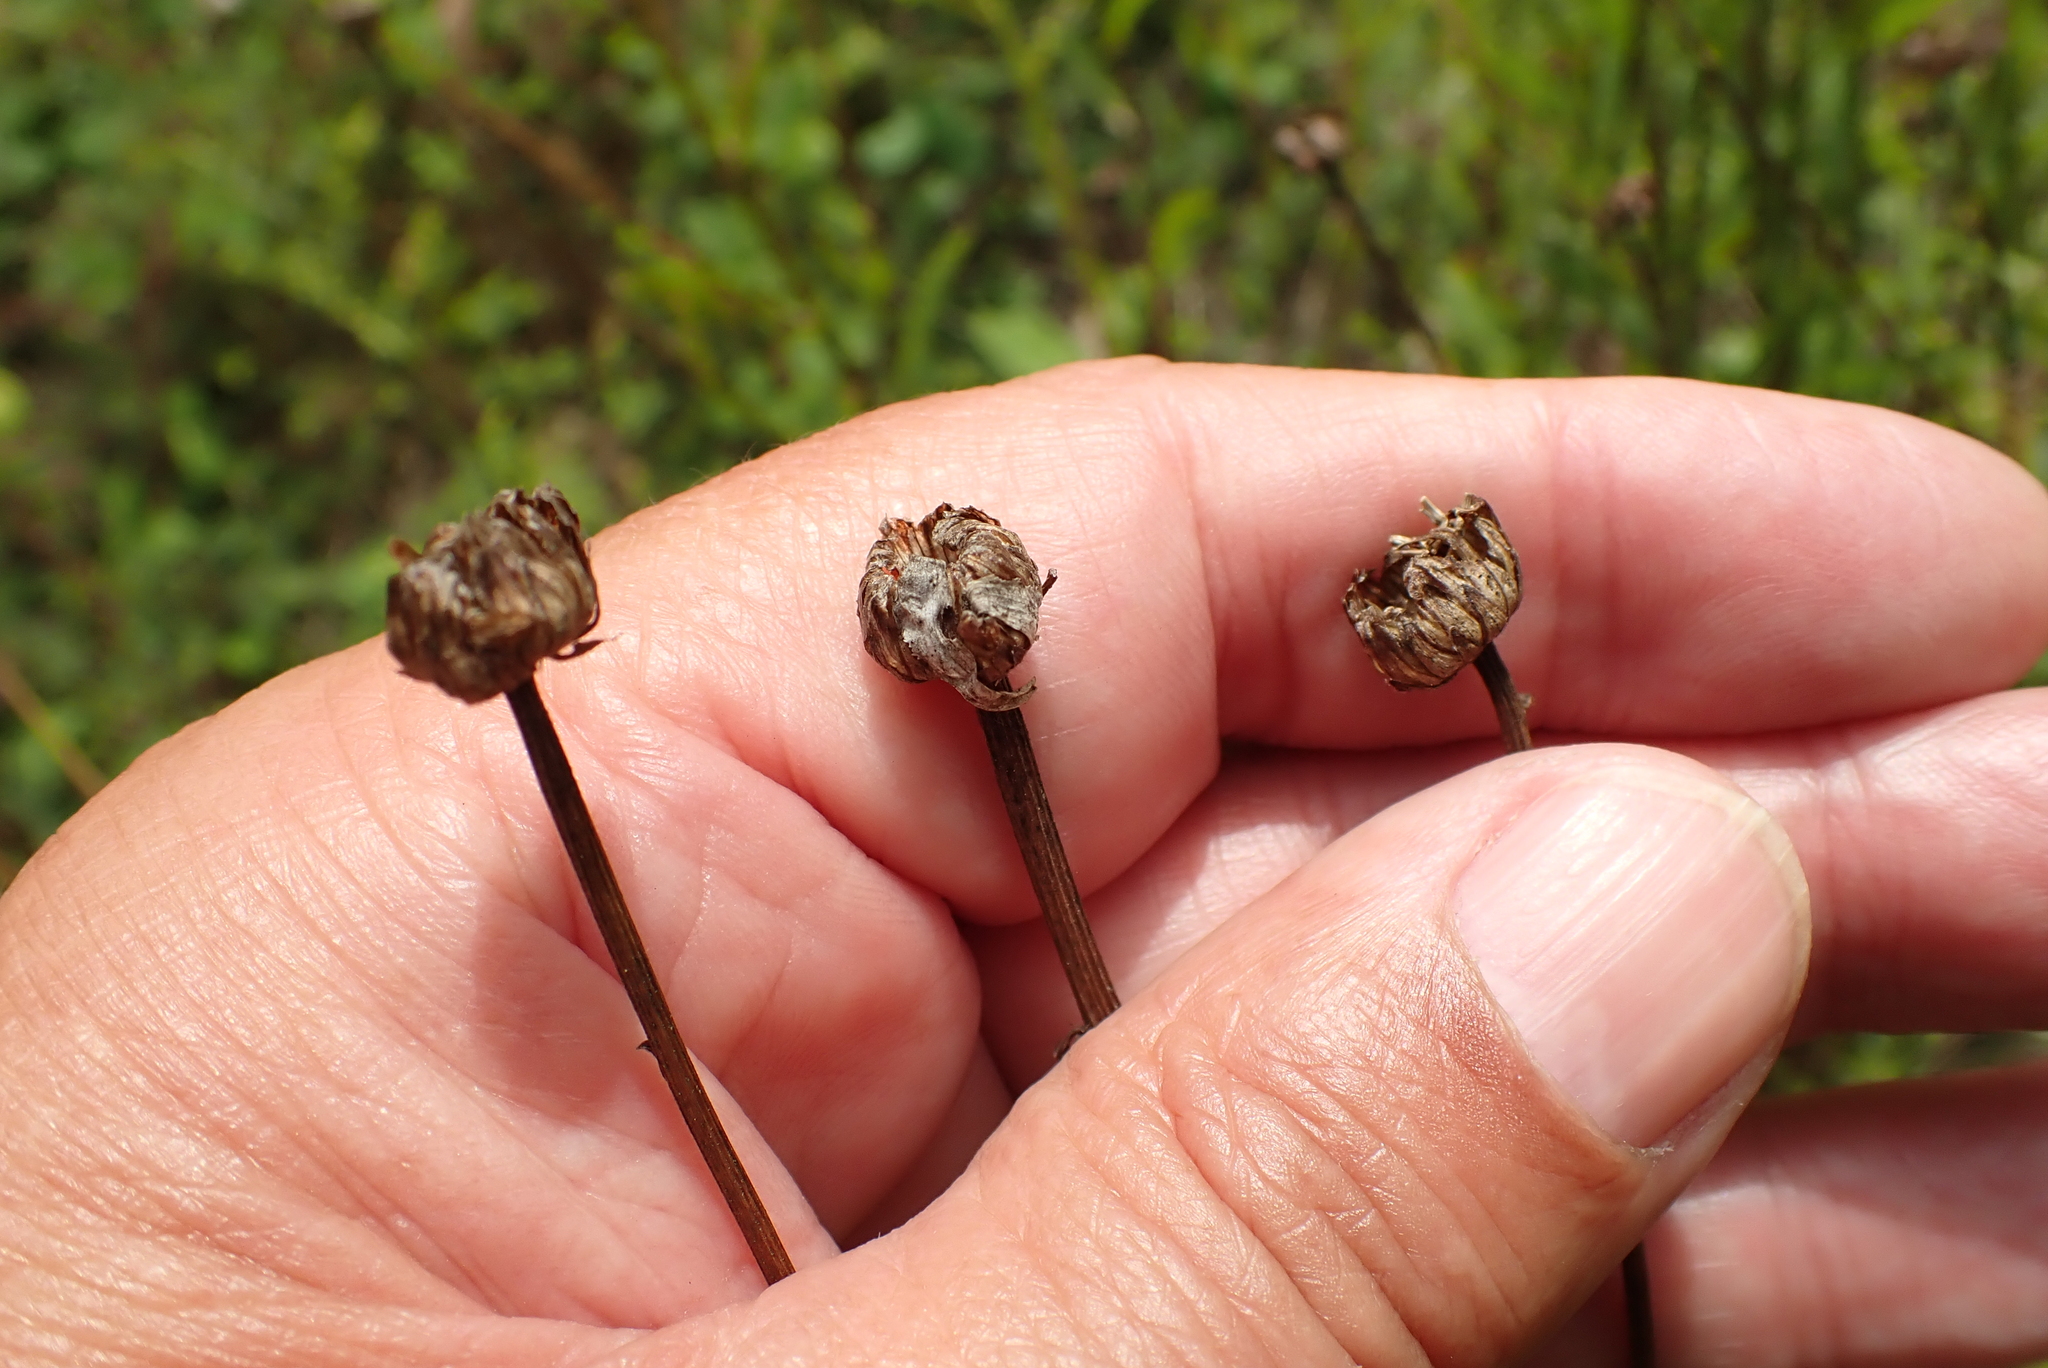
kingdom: Plantae
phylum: Tracheophyta
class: Magnoliopsida
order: Asterales
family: Asteraceae
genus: Leucanthemum
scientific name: Leucanthemum vulgare
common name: Oxeye daisy
